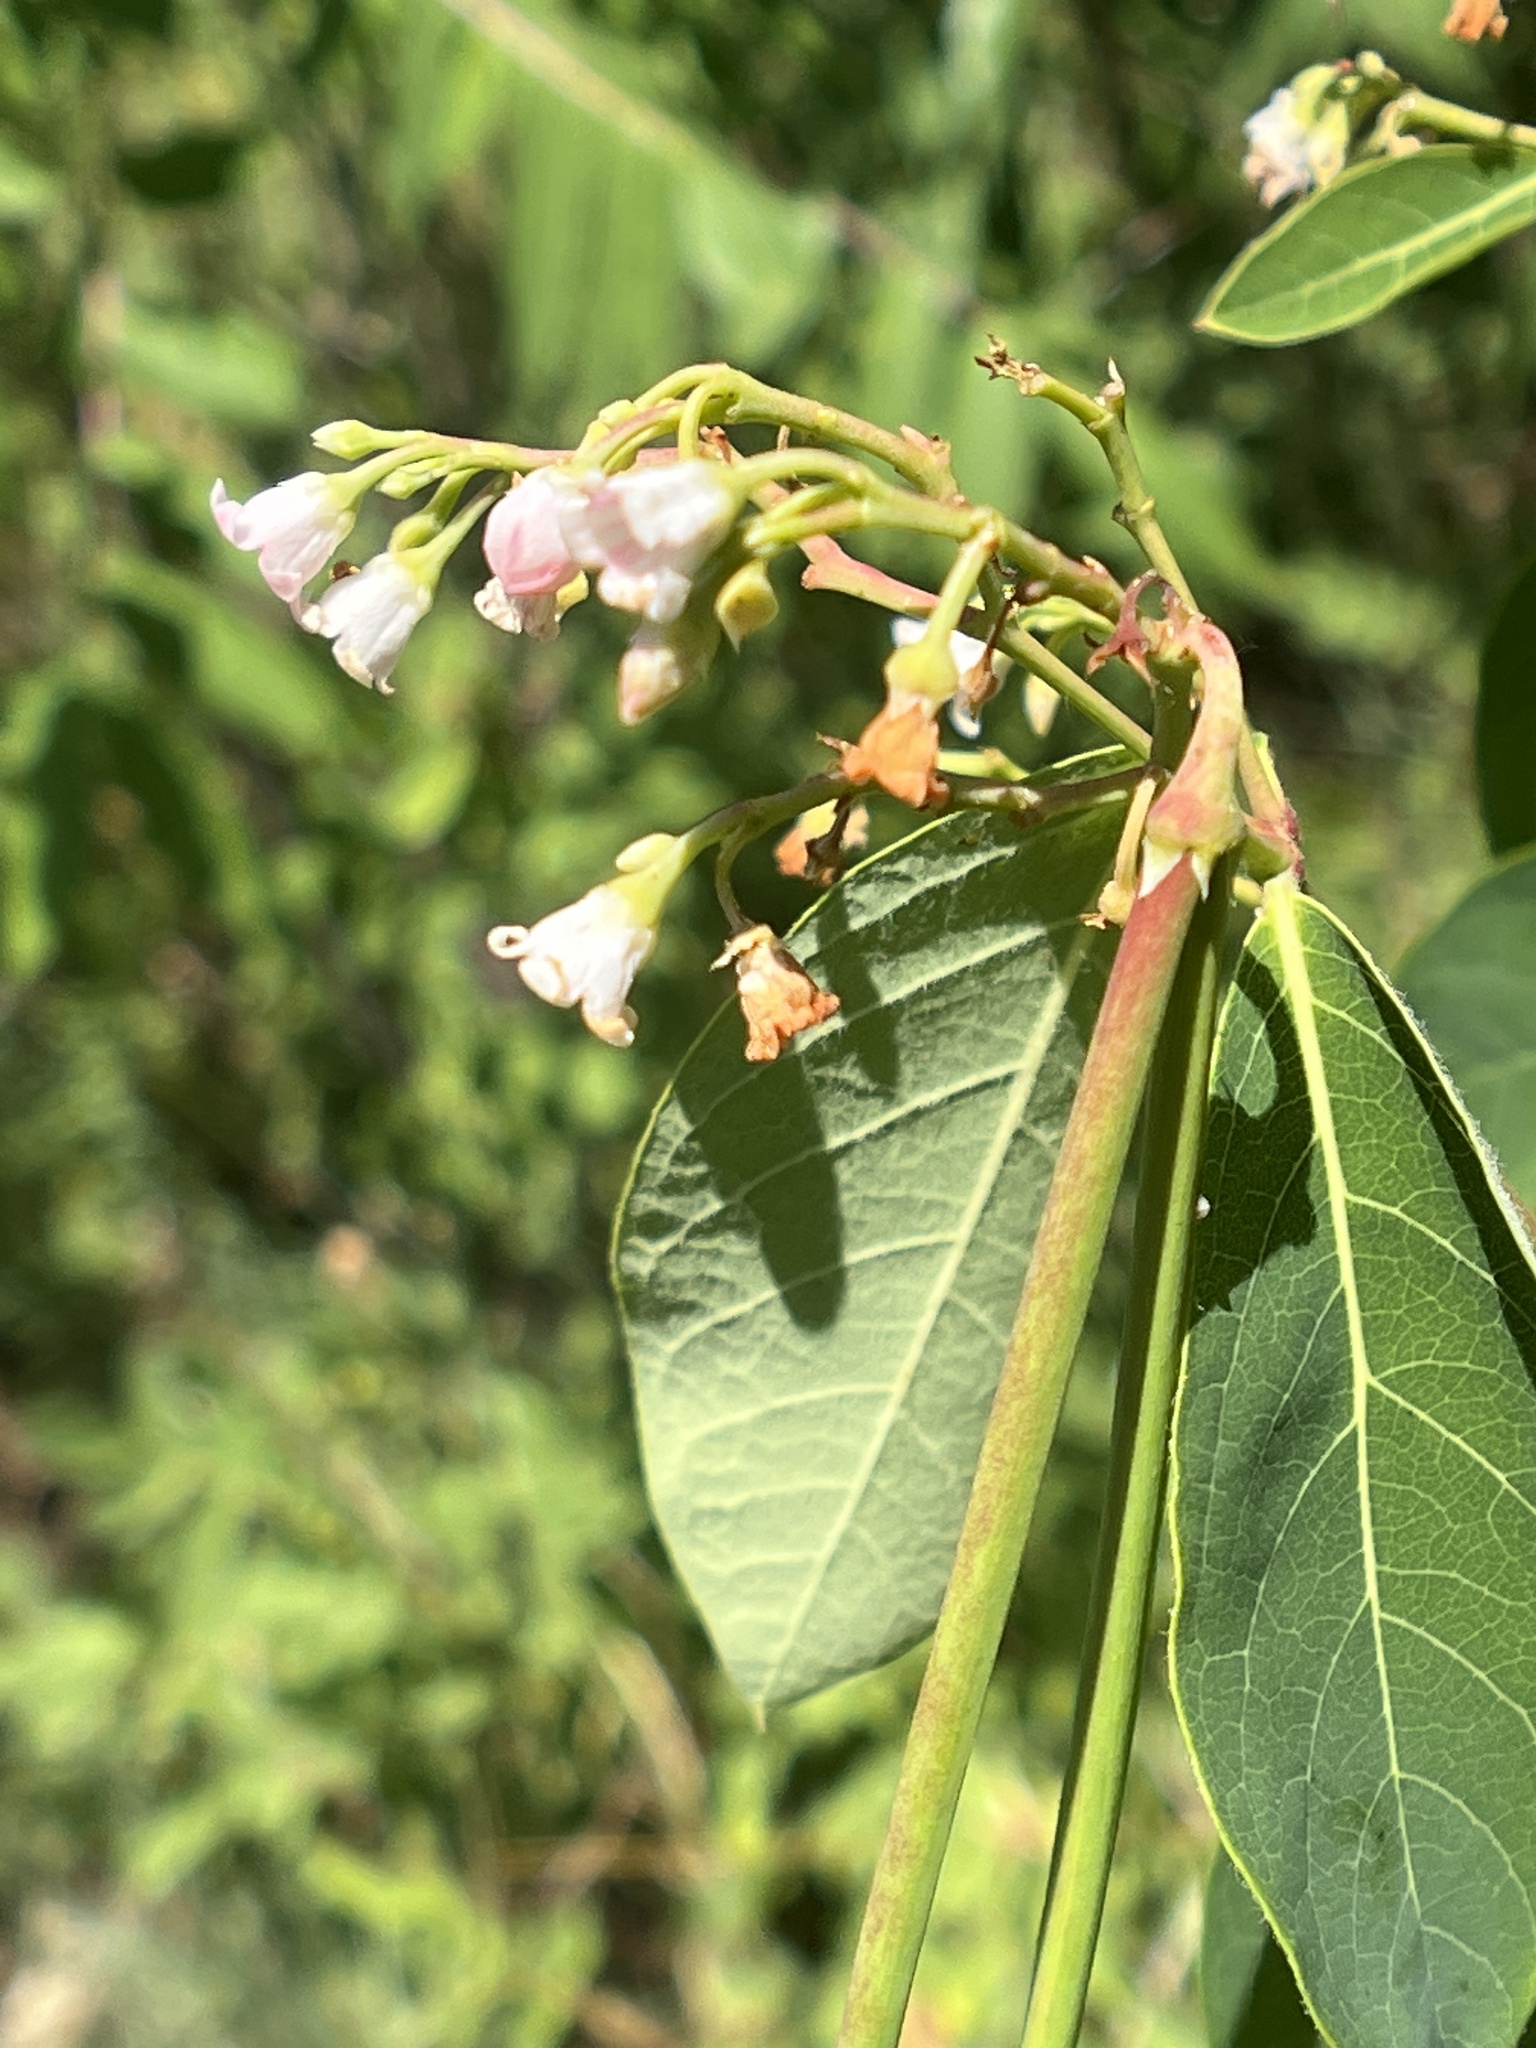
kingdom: Plantae
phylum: Tracheophyta
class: Magnoliopsida
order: Gentianales
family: Apocynaceae
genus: Apocynum
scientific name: Apocynum androsaemifolium
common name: Spreading dogbane
